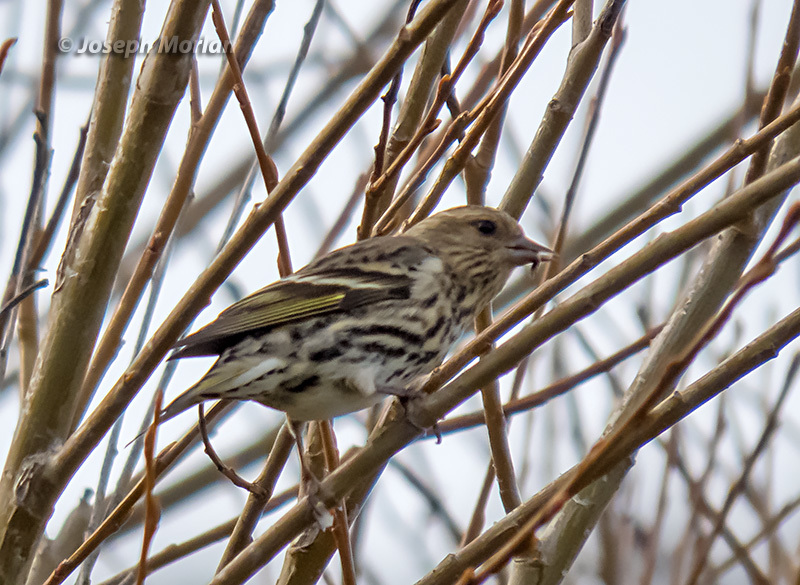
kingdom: Animalia
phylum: Chordata
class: Aves
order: Passeriformes
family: Fringillidae
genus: Spinus
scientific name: Spinus pinus
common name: Pine siskin
